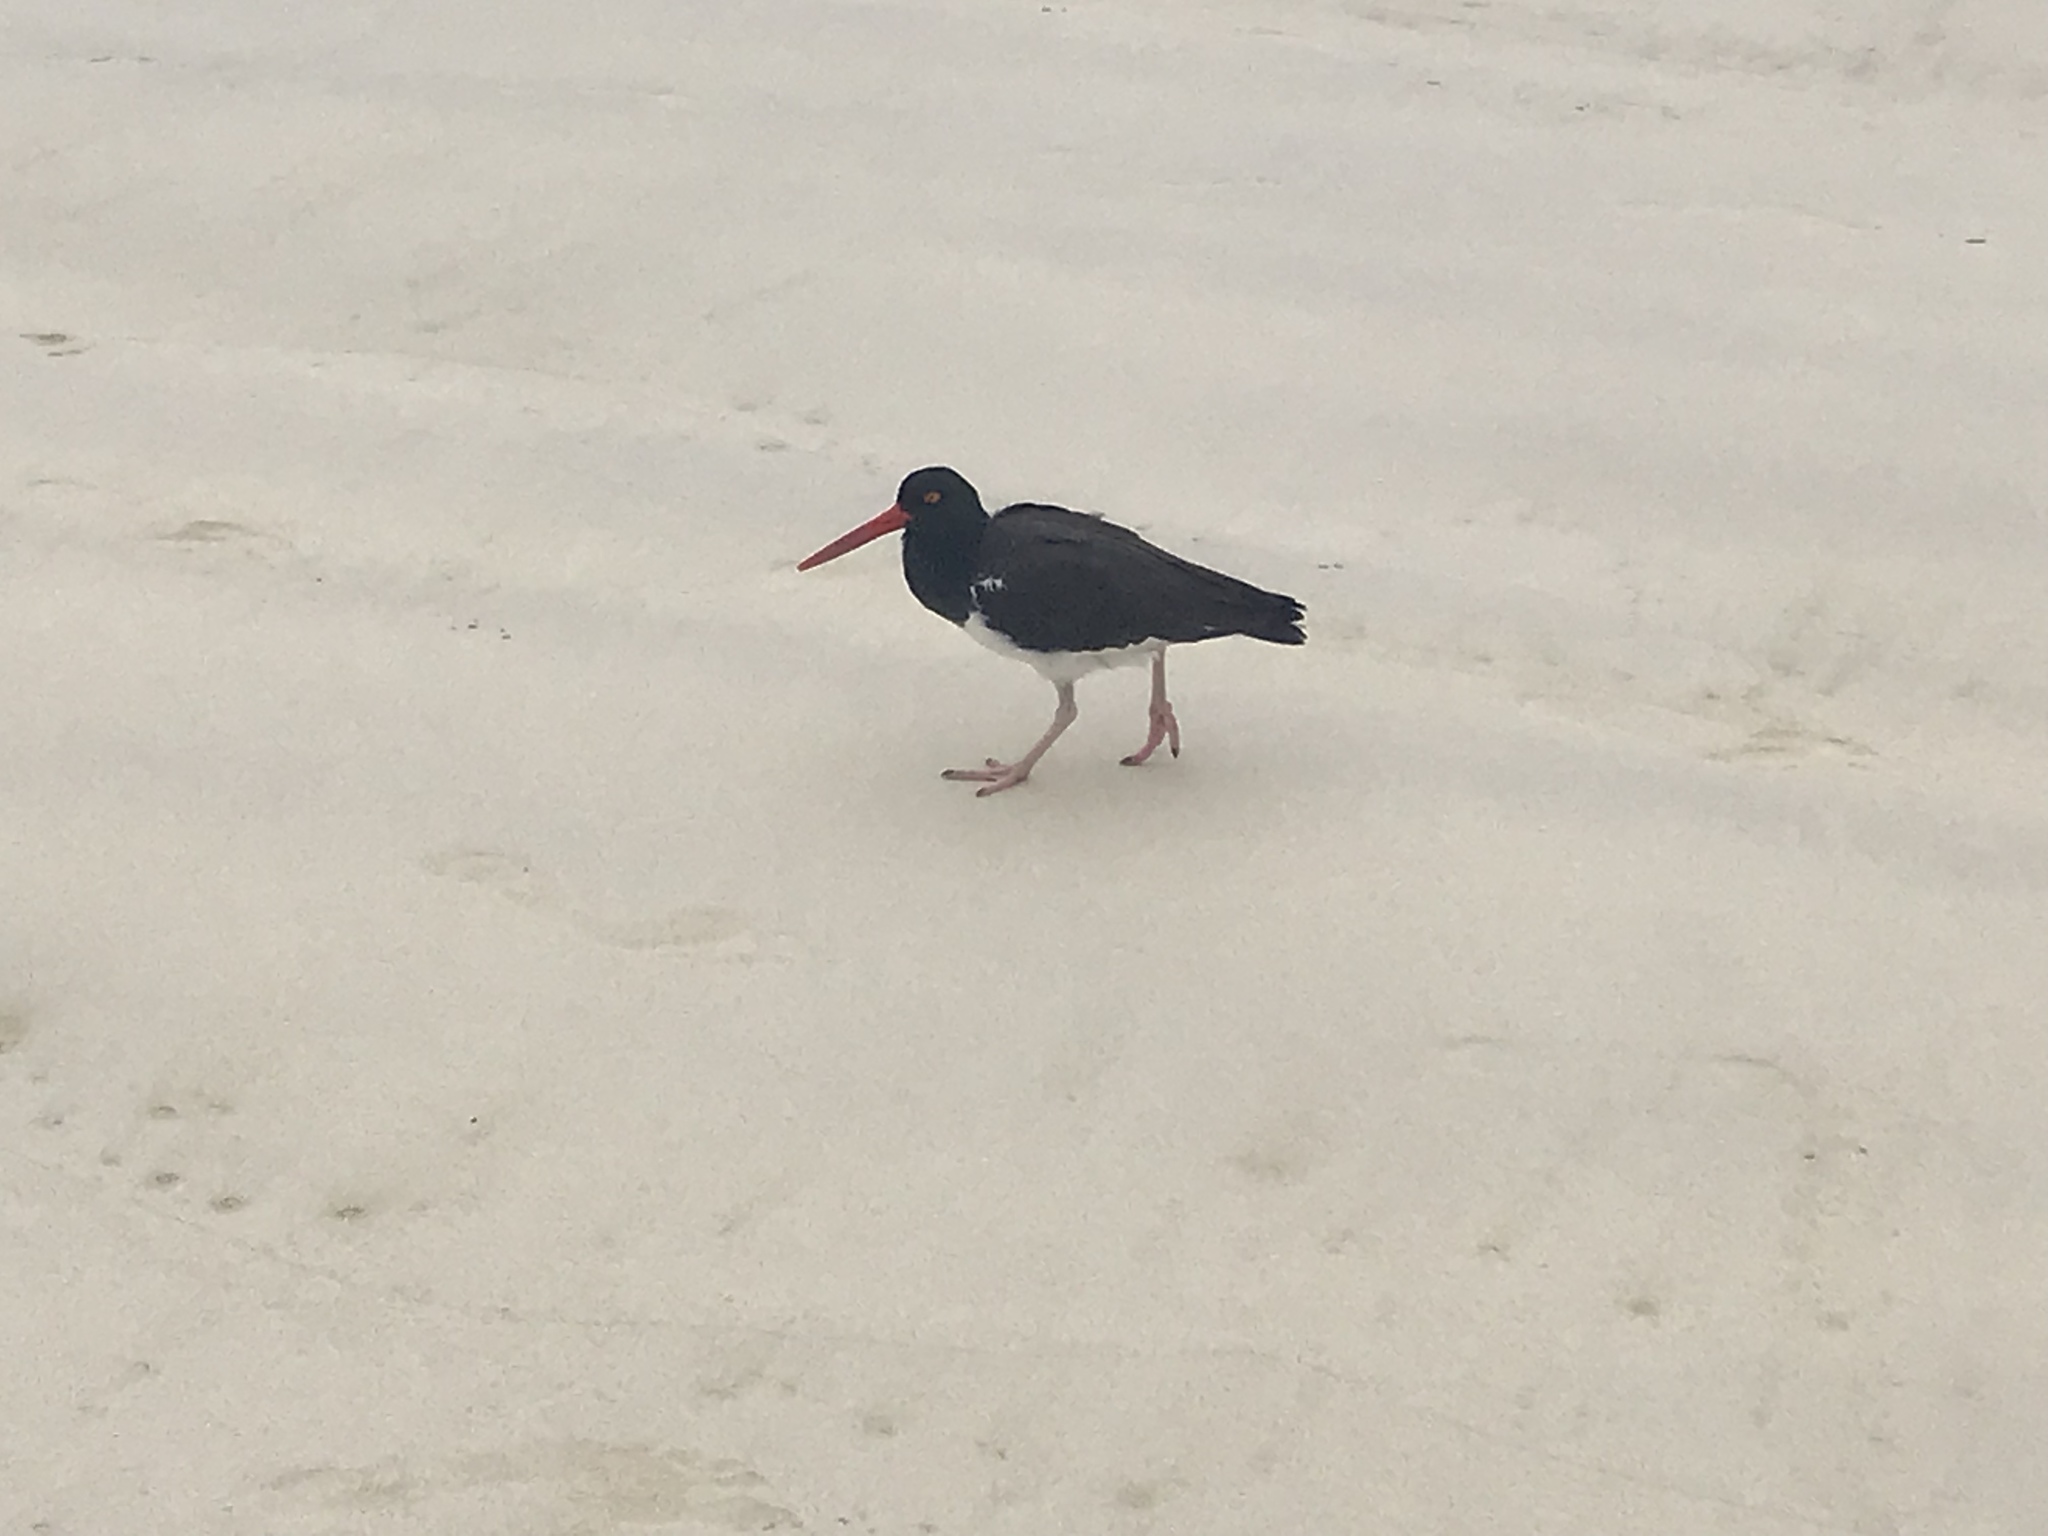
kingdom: Animalia
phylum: Chordata
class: Aves
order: Charadriiformes
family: Haematopodidae
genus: Haematopus
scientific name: Haematopus palliatus
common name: American oystercatcher
